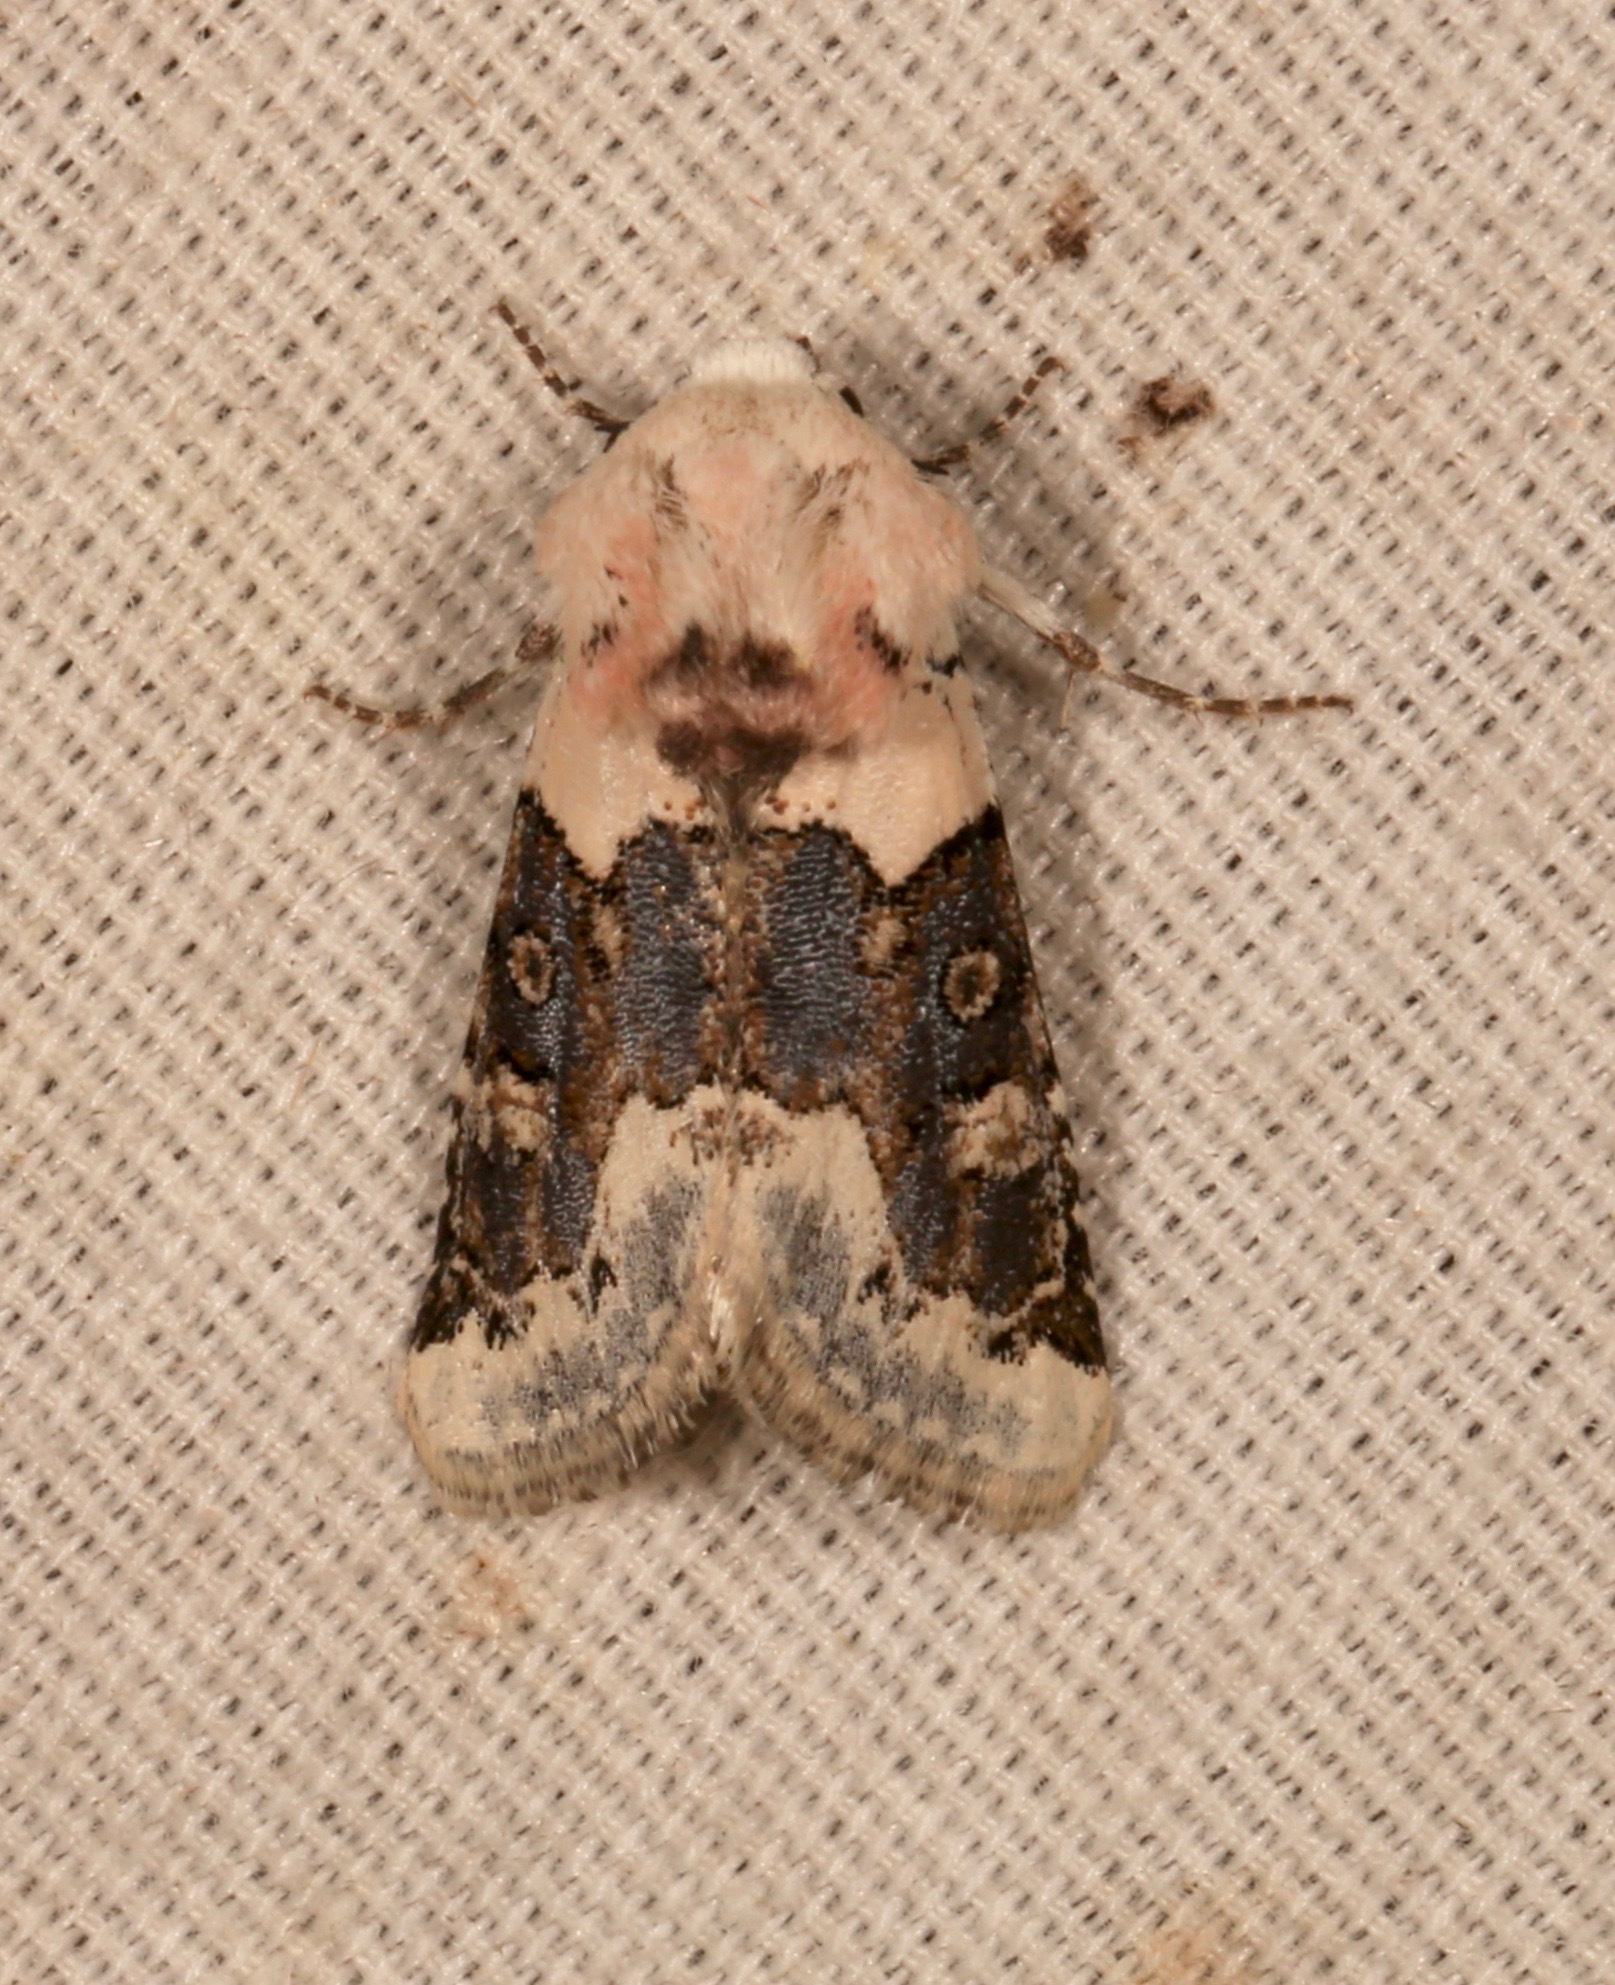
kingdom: Animalia
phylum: Arthropoda
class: Insecta
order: Lepidoptera
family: Noctuidae
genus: Triocnemis
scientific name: Triocnemis saporis
